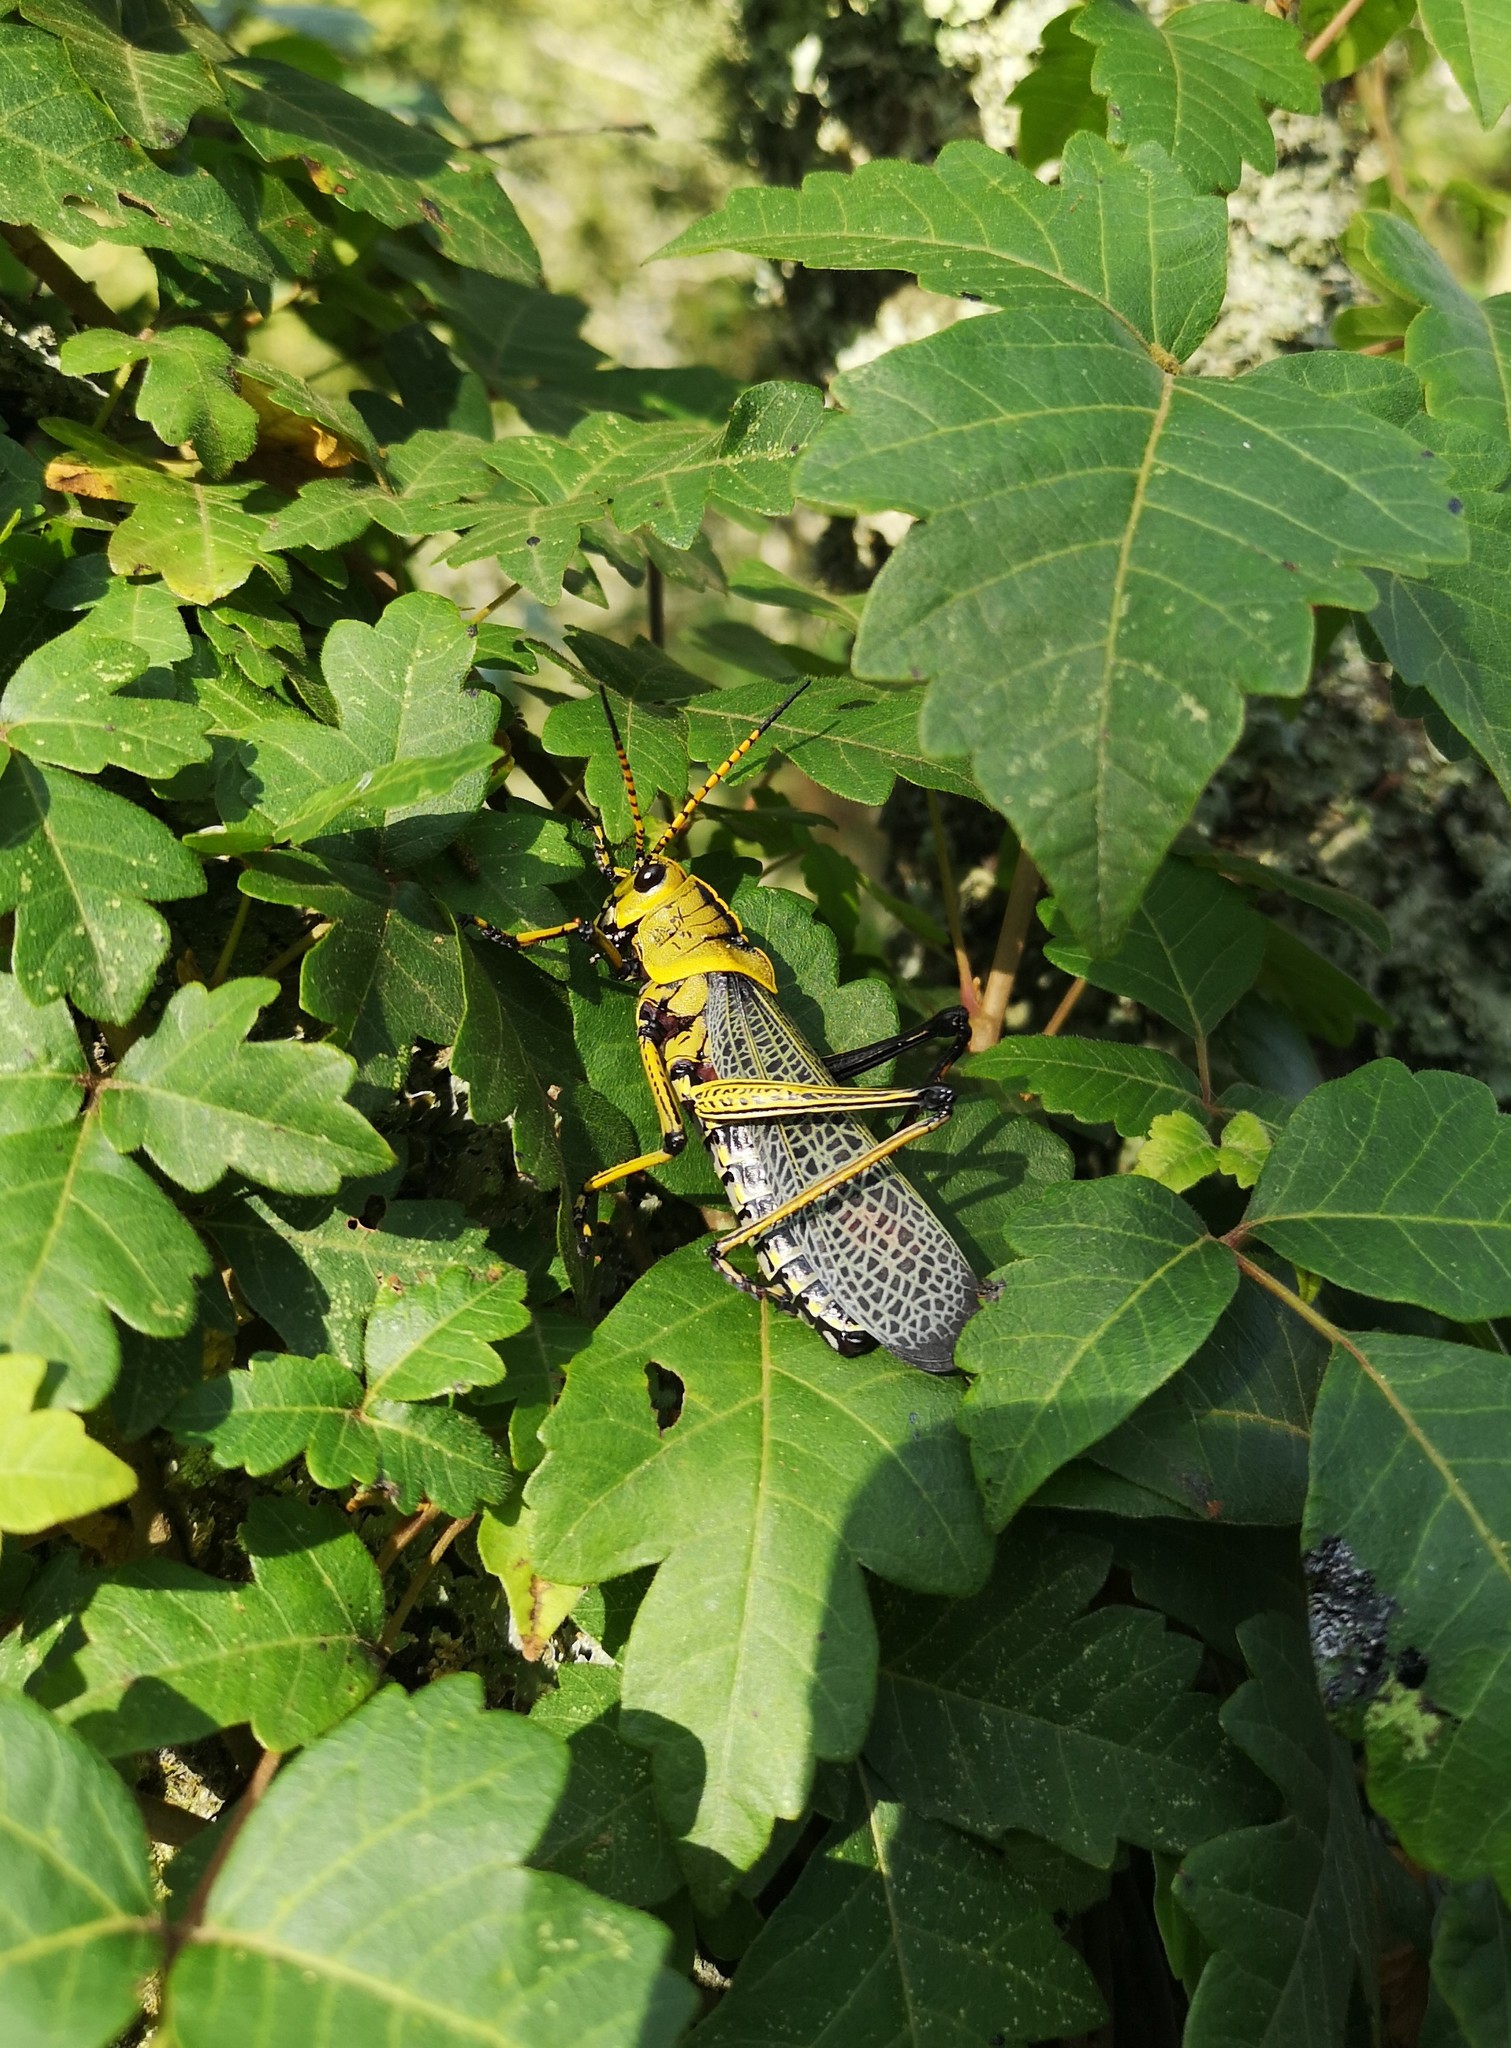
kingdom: Animalia
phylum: Arthropoda
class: Insecta
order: Orthoptera
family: Romaleidae
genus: Romalea
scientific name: Romalea
